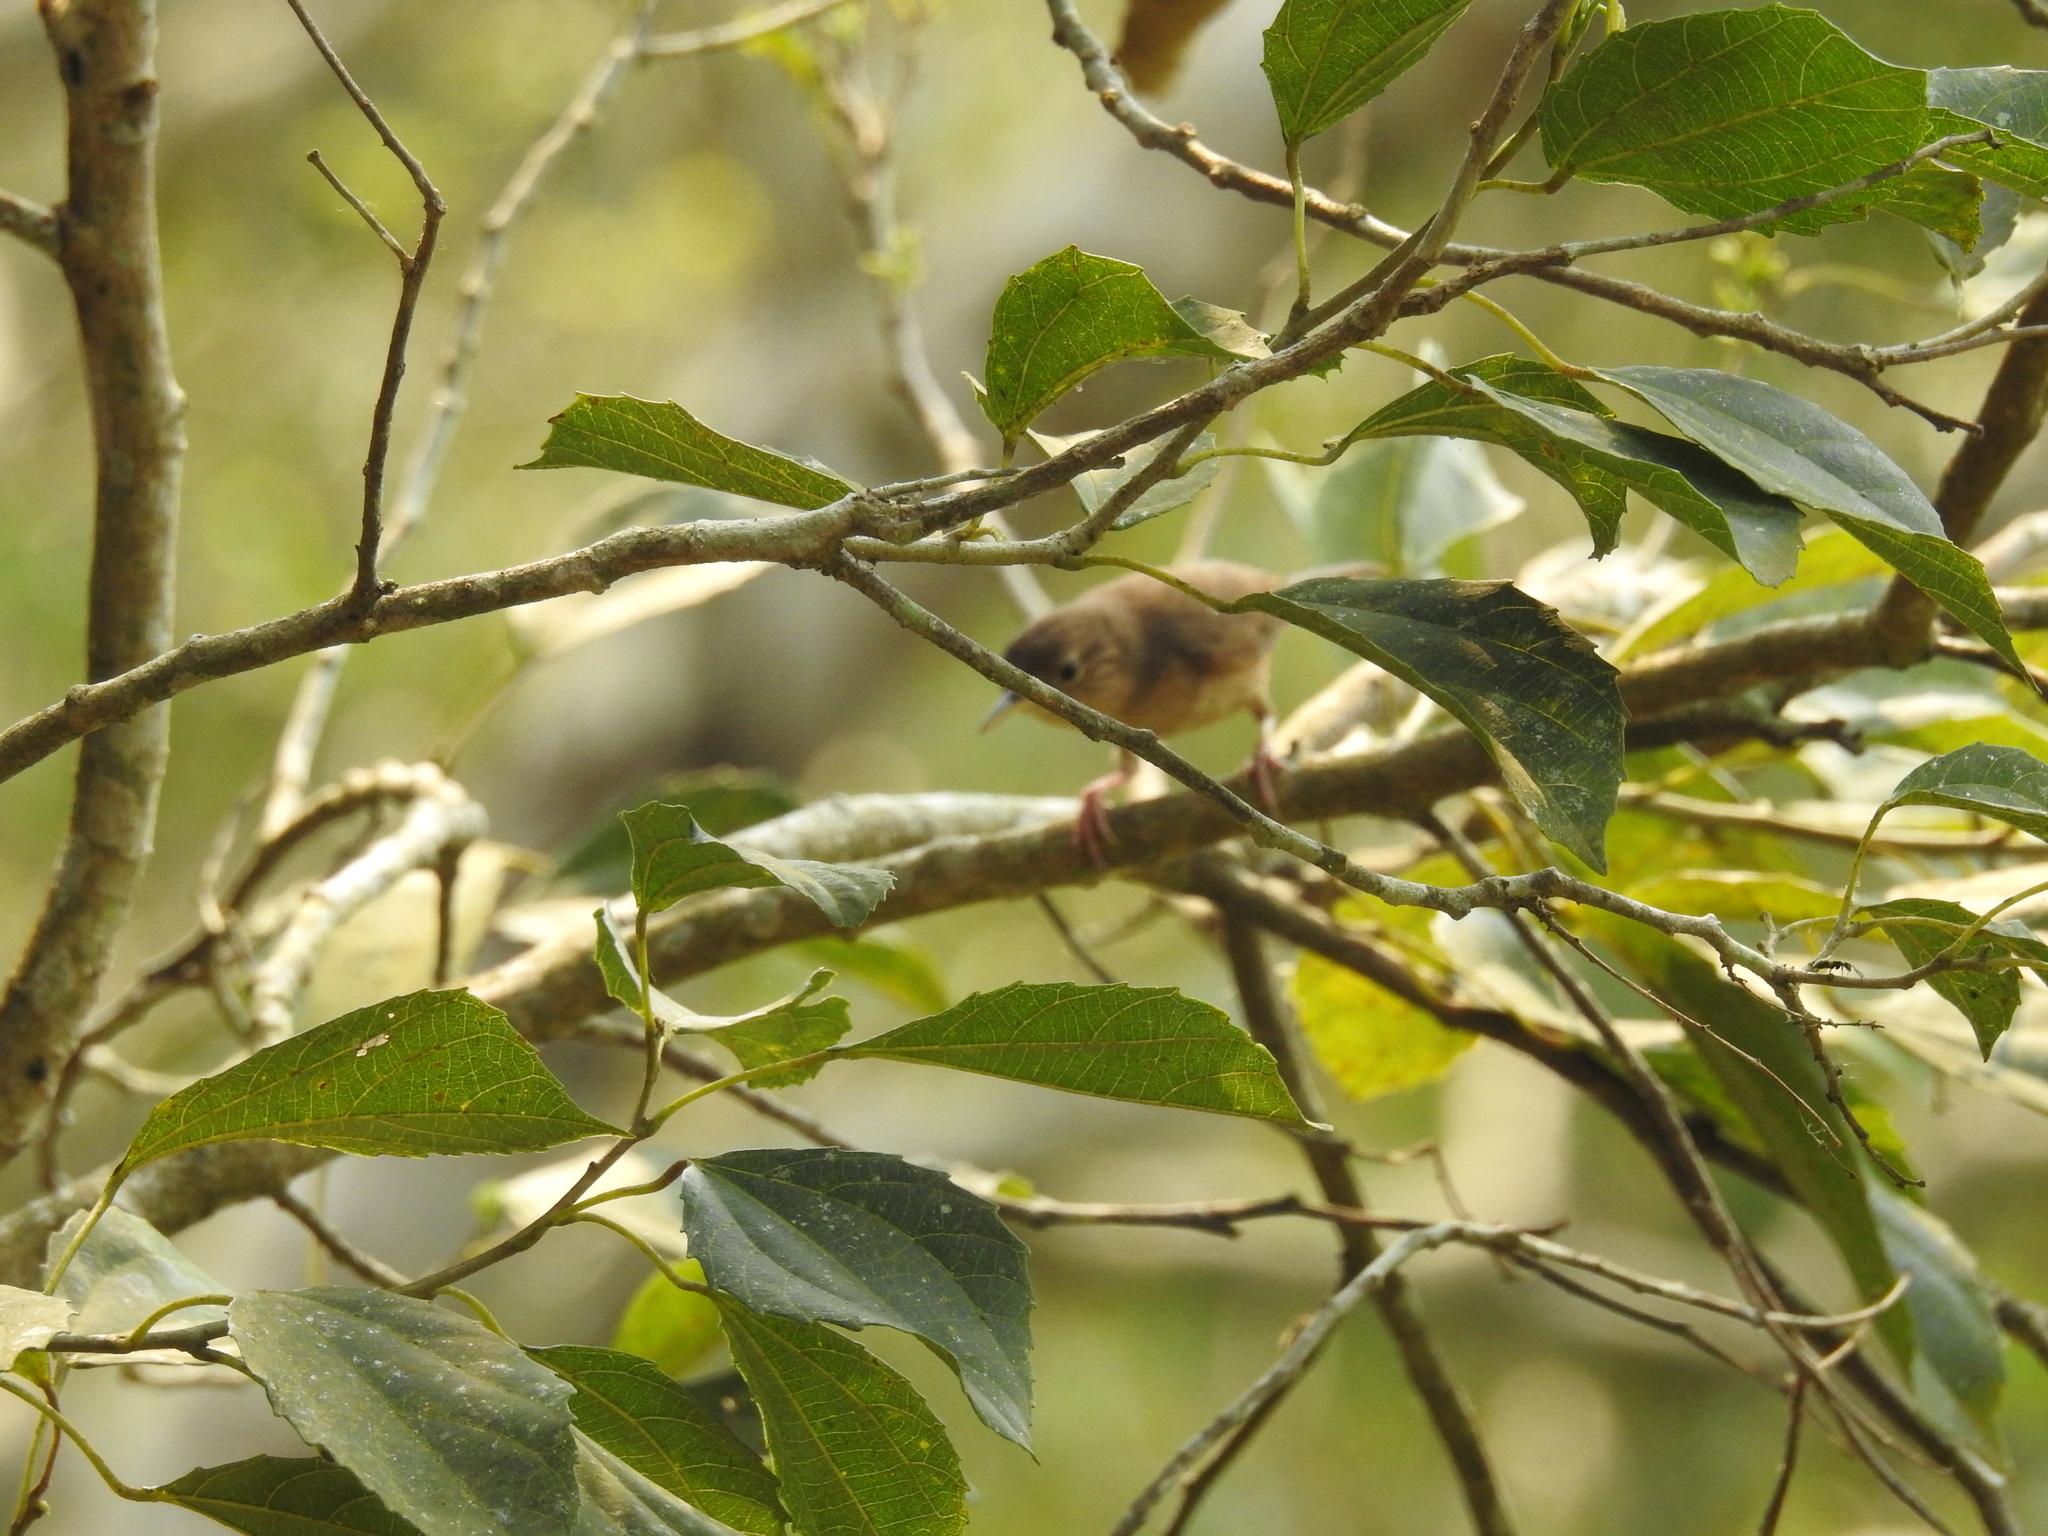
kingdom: Animalia
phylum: Chordata
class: Aves
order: Passeriformes
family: Troglodytidae
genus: Troglodytes
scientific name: Troglodytes aedon
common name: House wren
